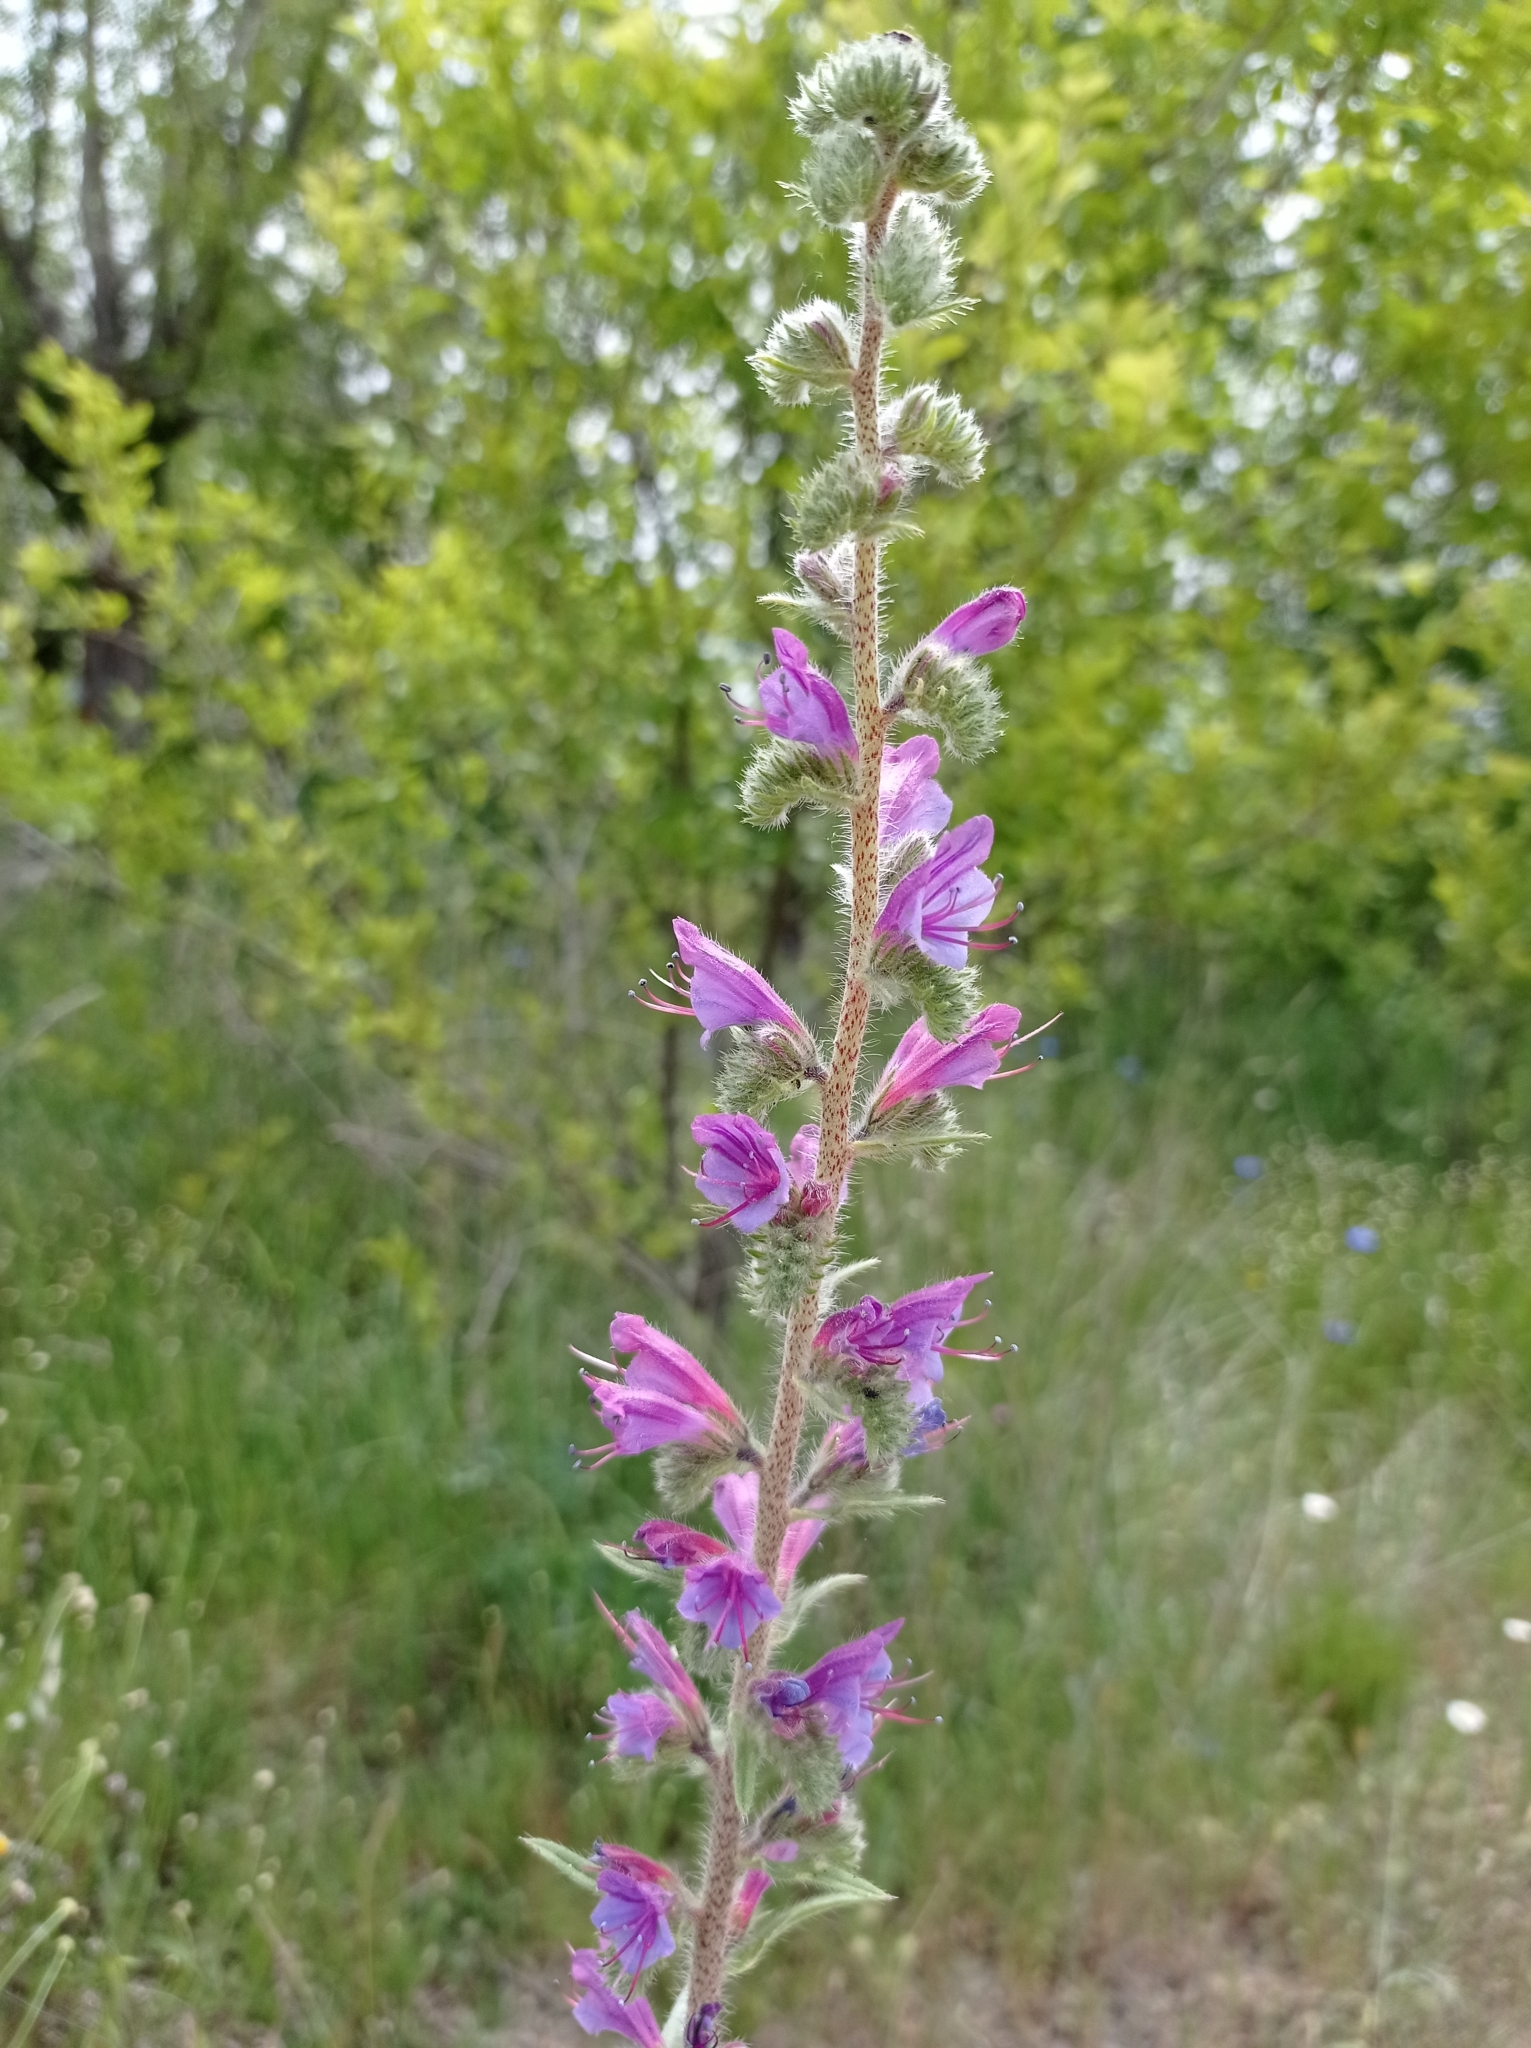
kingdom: Plantae
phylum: Tracheophyta
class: Magnoliopsida
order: Boraginales
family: Boraginaceae
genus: Echium
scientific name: Echium vulgare
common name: Common viper's bugloss
